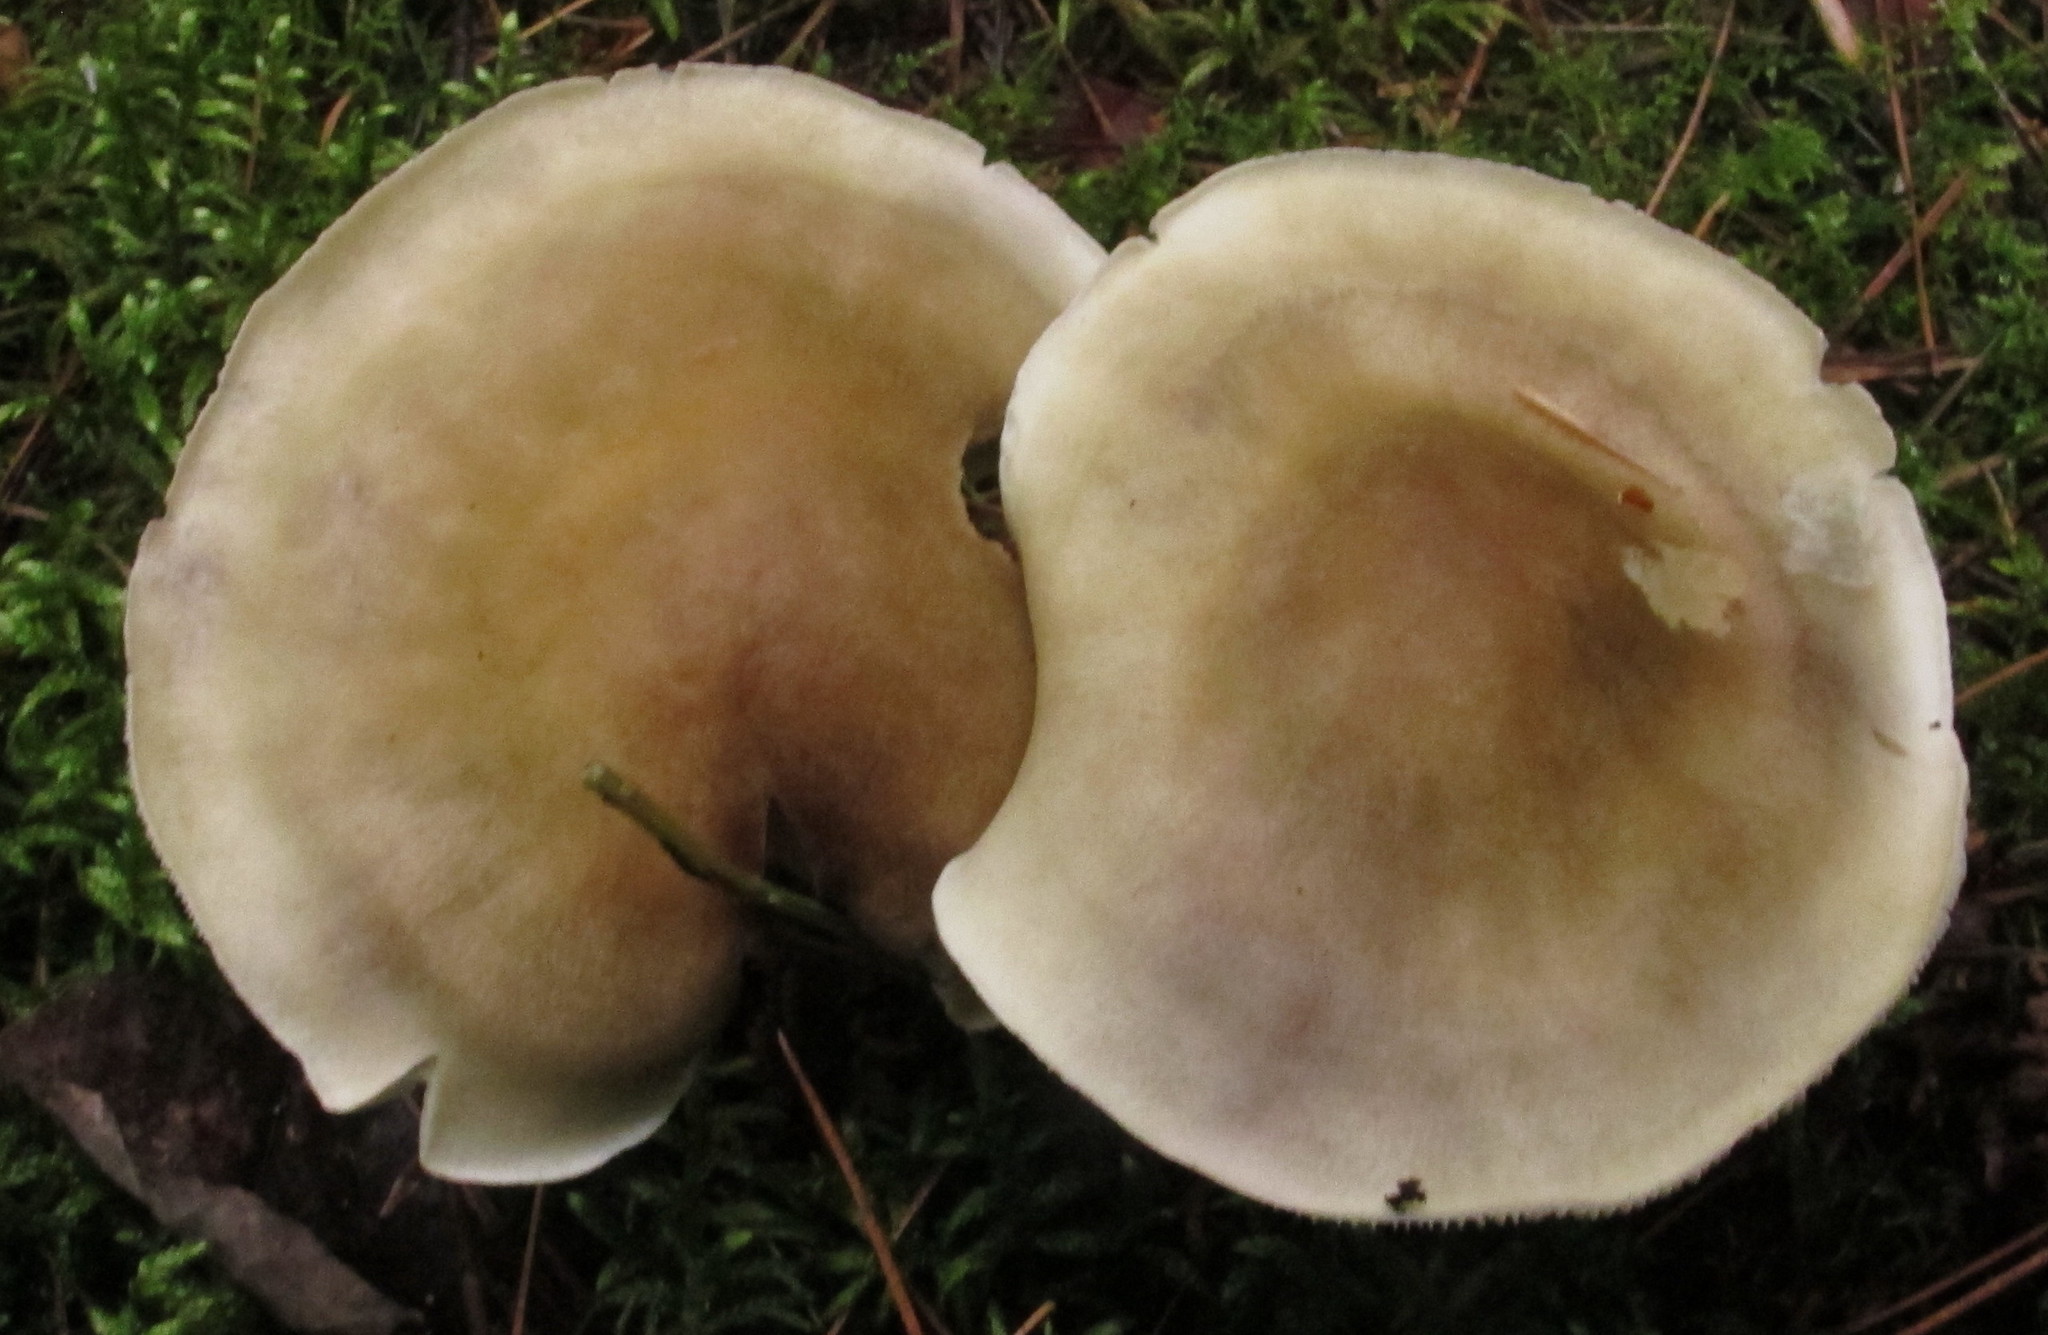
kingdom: Fungi
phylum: Basidiomycota
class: Agaricomycetes
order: Agaricales
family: Tricholomataceae
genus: Tricholoma
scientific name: Tricholoma saponaceum
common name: Soapy trich
